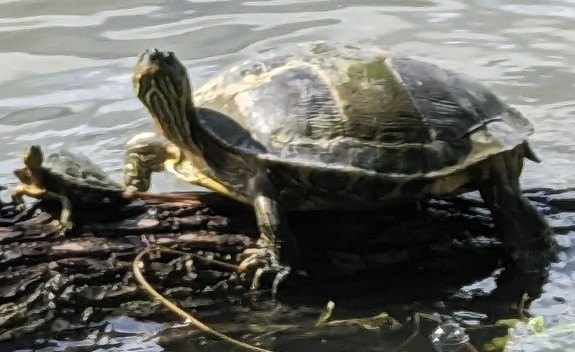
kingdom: Animalia
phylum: Chordata
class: Testudines
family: Emydidae
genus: Pseudemys
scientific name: Pseudemys texana
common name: Texas river cooter
